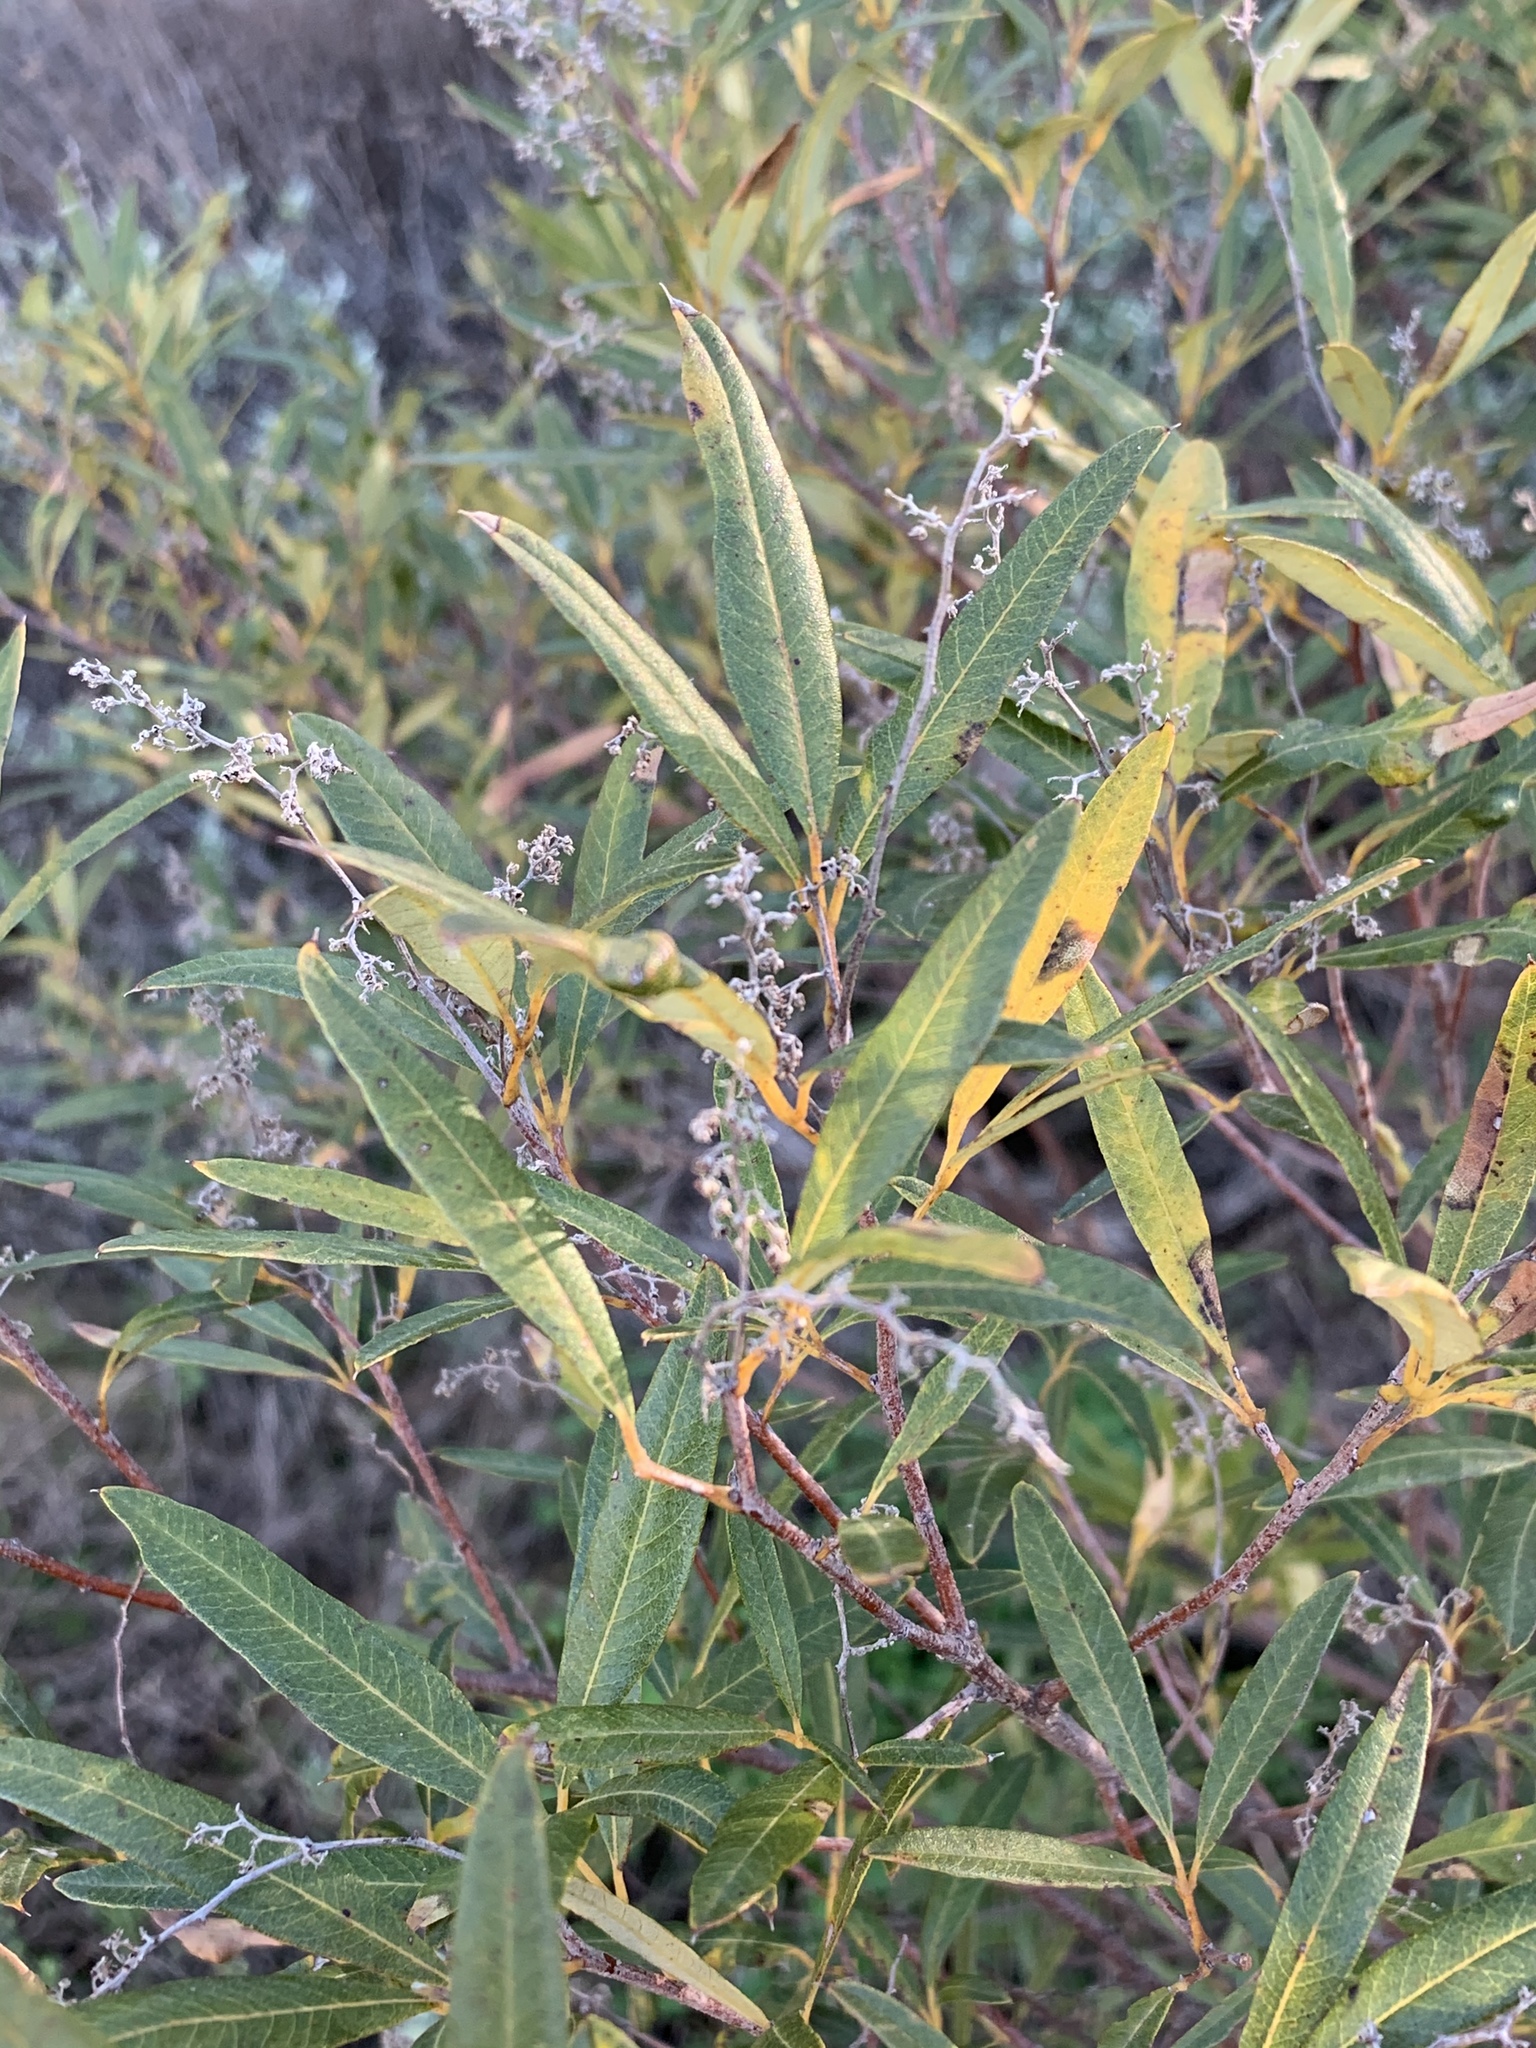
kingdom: Plantae
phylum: Tracheophyta
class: Magnoliopsida
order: Sapindales
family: Anacardiaceae
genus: Searsia
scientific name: Searsia angustifolia
